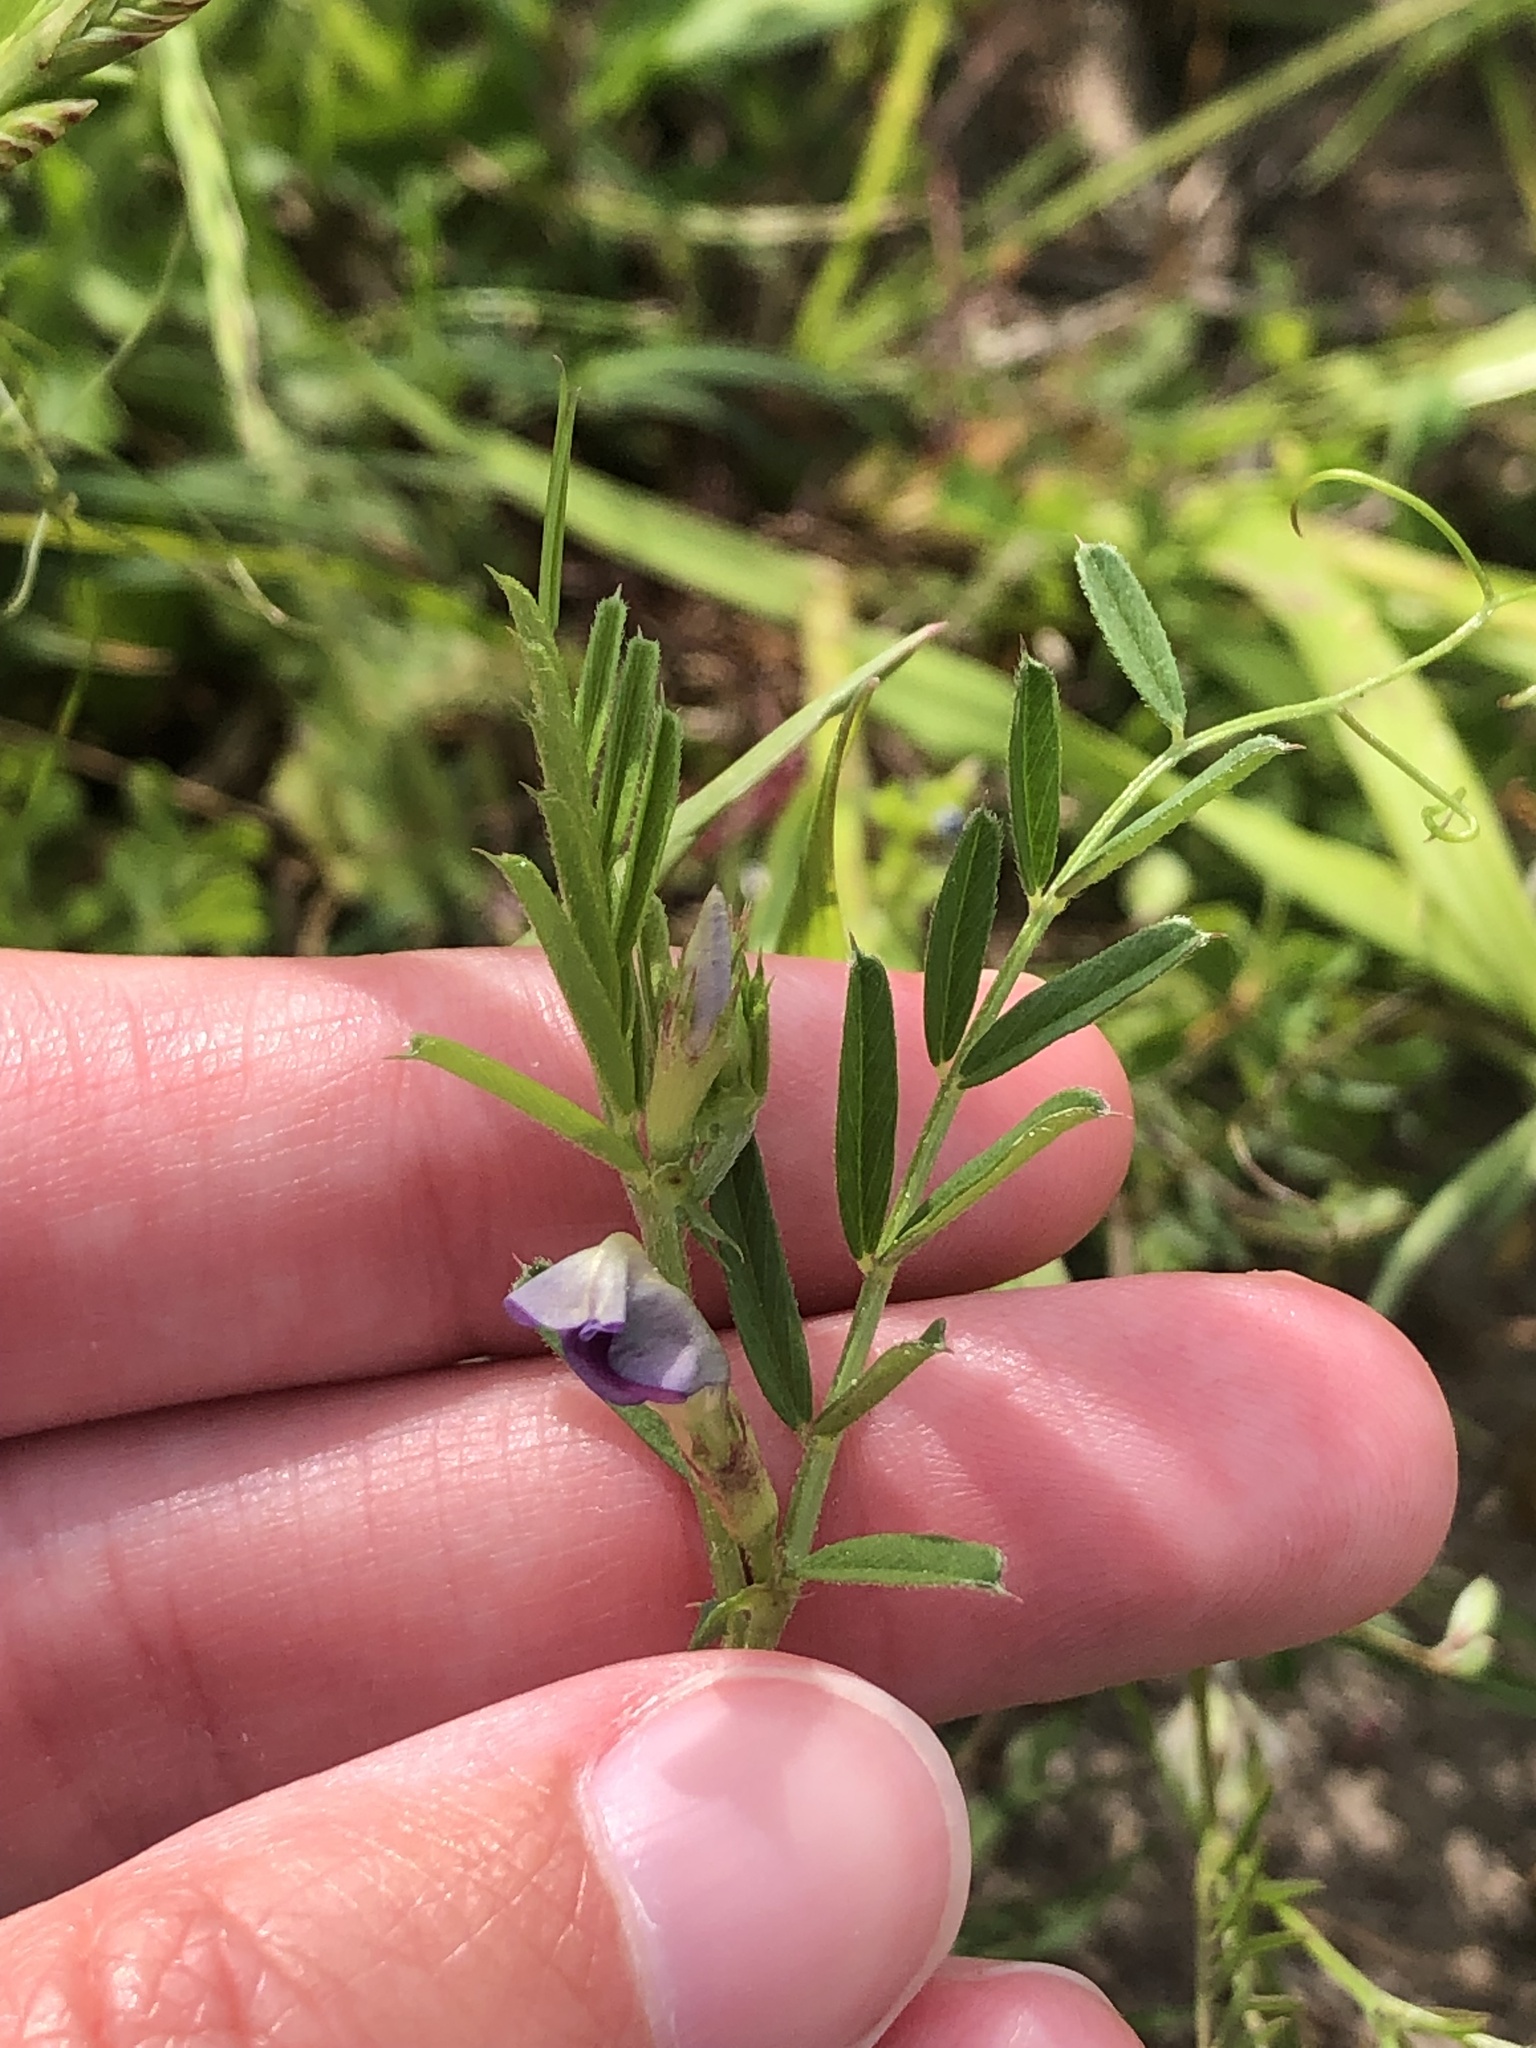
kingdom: Plantae
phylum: Tracheophyta
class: Magnoliopsida
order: Fabales
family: Fabaceae
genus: Vicia
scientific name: Vicia sativa
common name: Garden vetch
